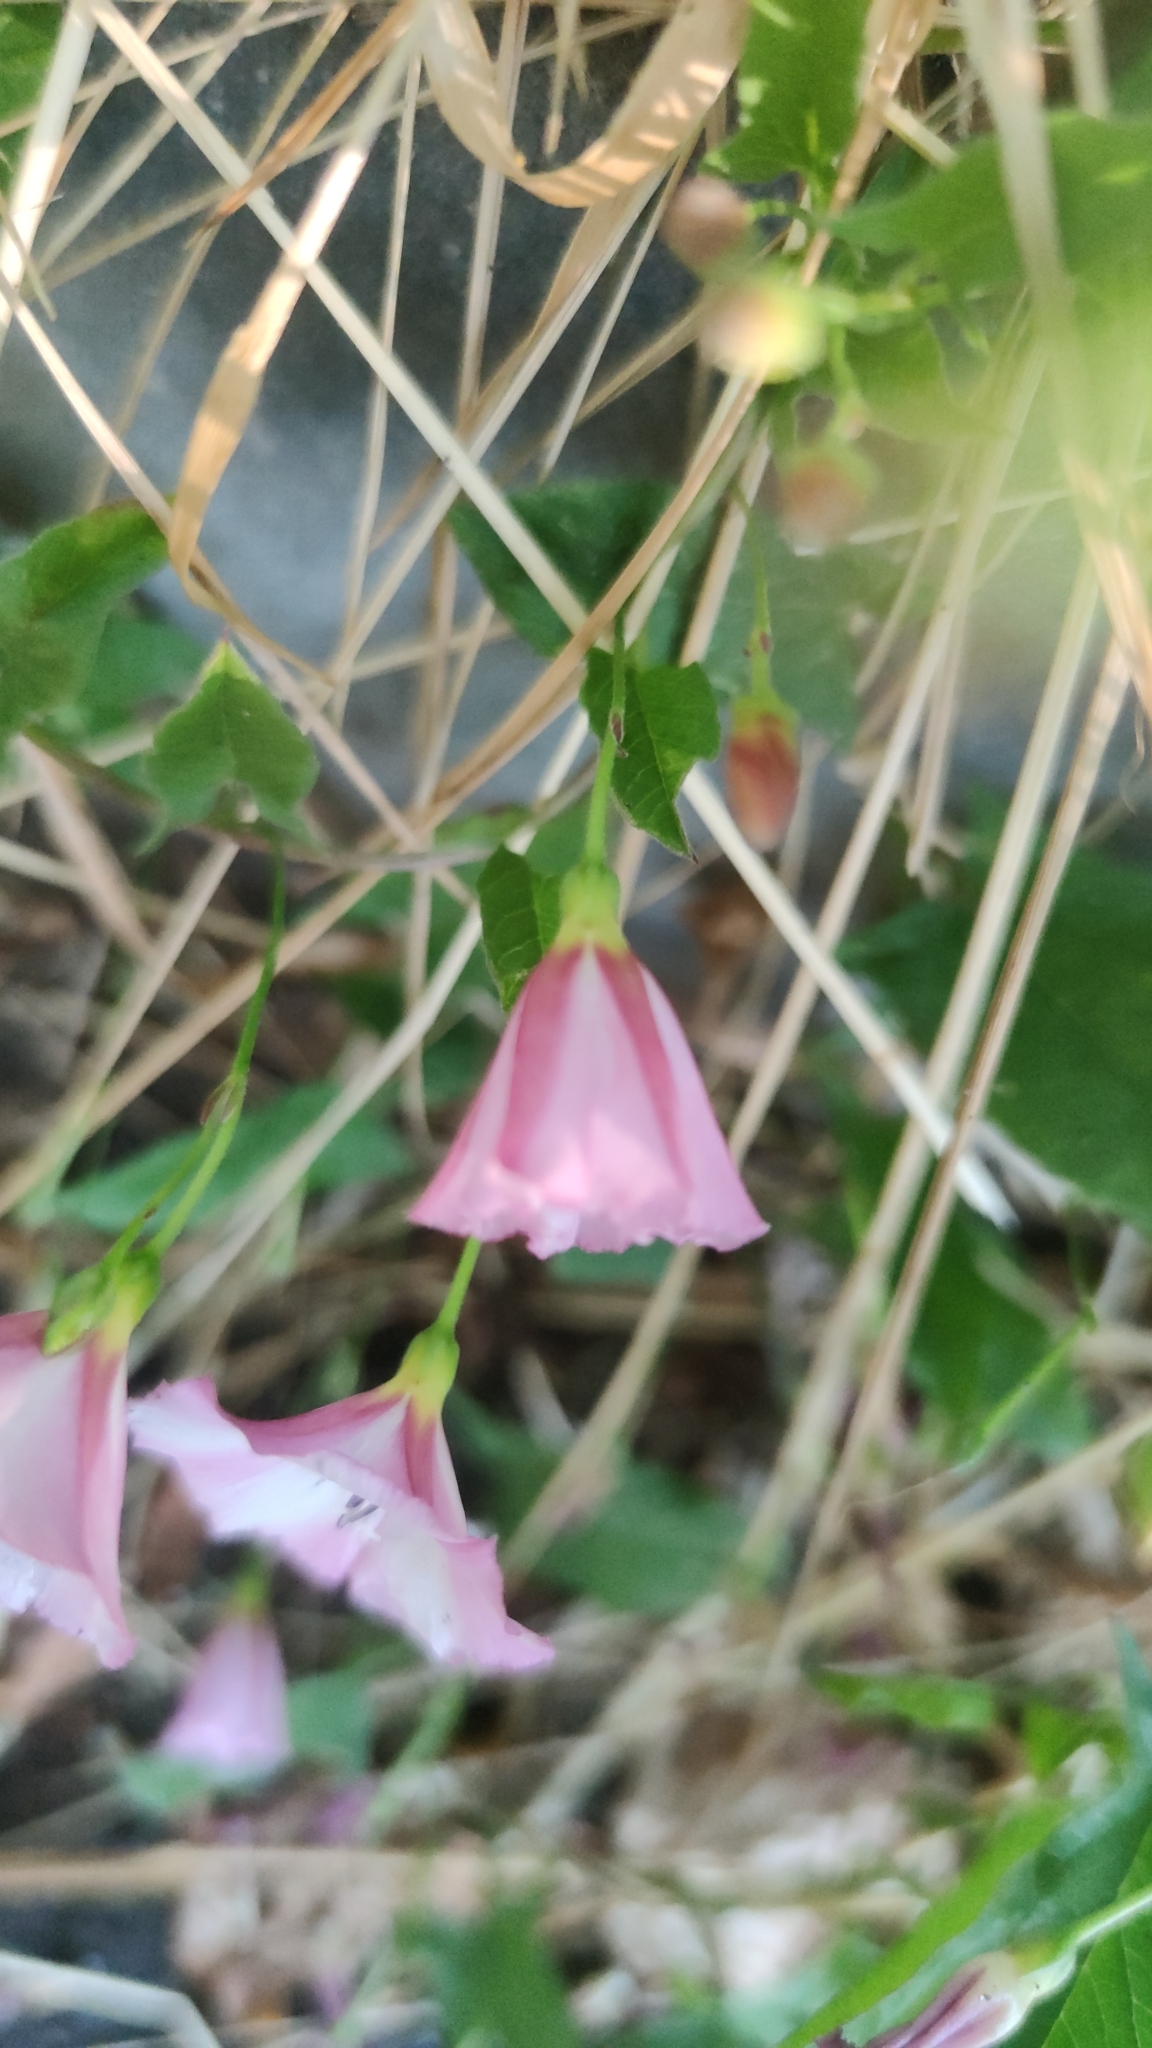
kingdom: Plantae
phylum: Tracheophyta
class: Magnoliopsida
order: Solanales
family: Convolvulaceae
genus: Convolvulus
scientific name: Convolvulus arvensis
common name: Field bindweed
